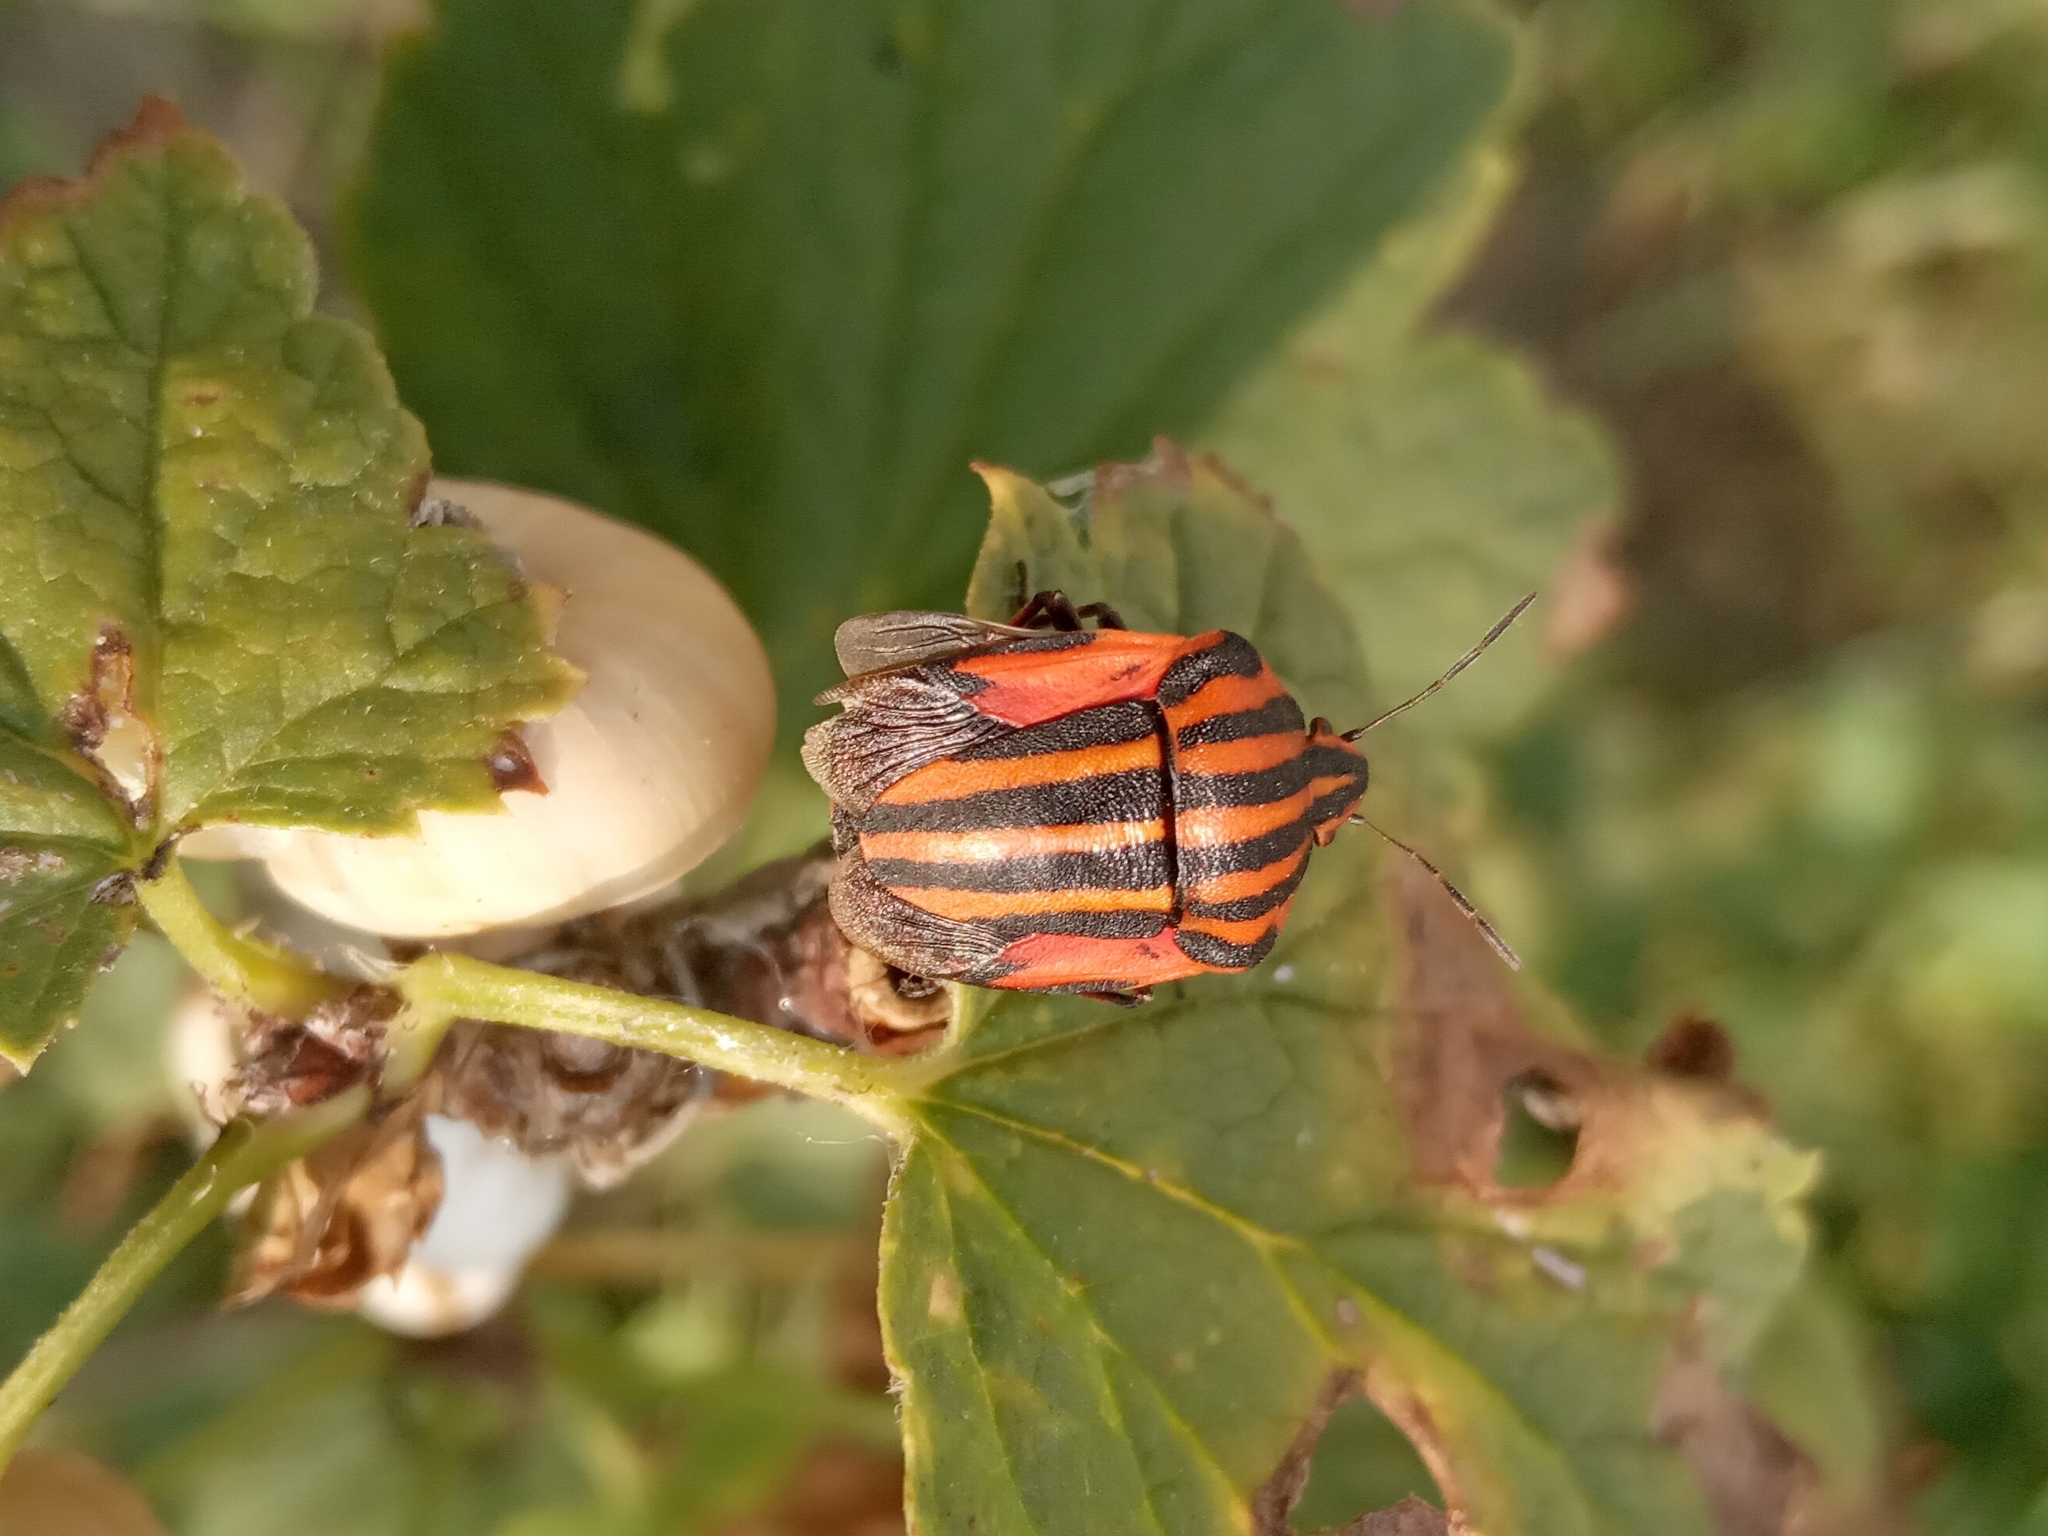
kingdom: Animalia
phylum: Arthropoda
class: Insecta
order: Hemiptera
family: Pentatomidae
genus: Graphosoma
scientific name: Graphosoma italicum
